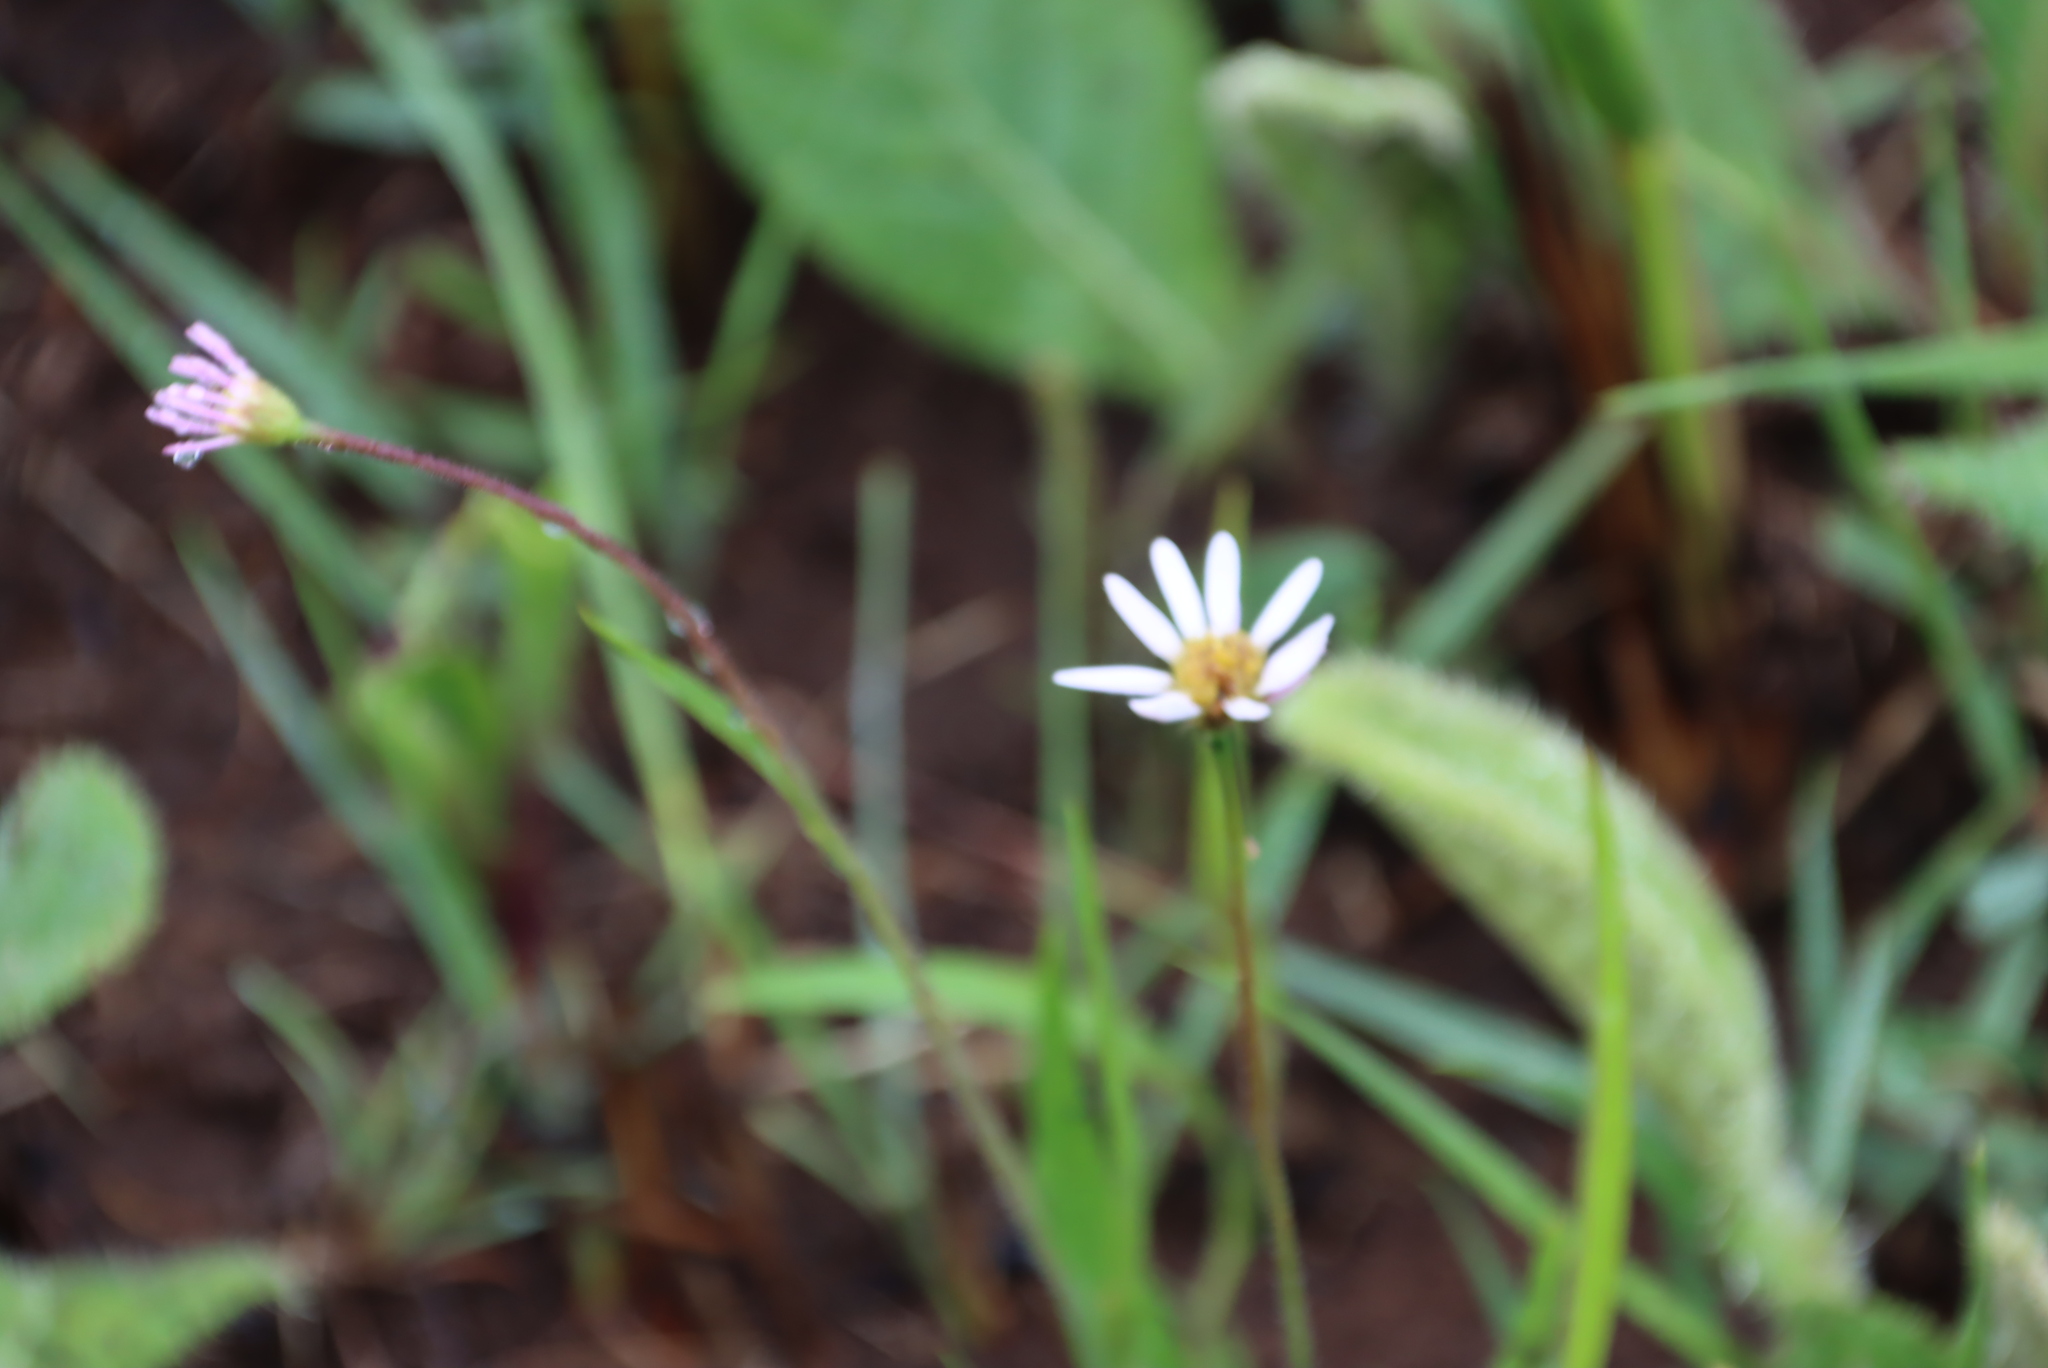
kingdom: Plantae
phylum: Tracheophyta
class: Magnoliopsida
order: Asterales
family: Asteraceae
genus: Afroaster
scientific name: Afroaster hispidus
